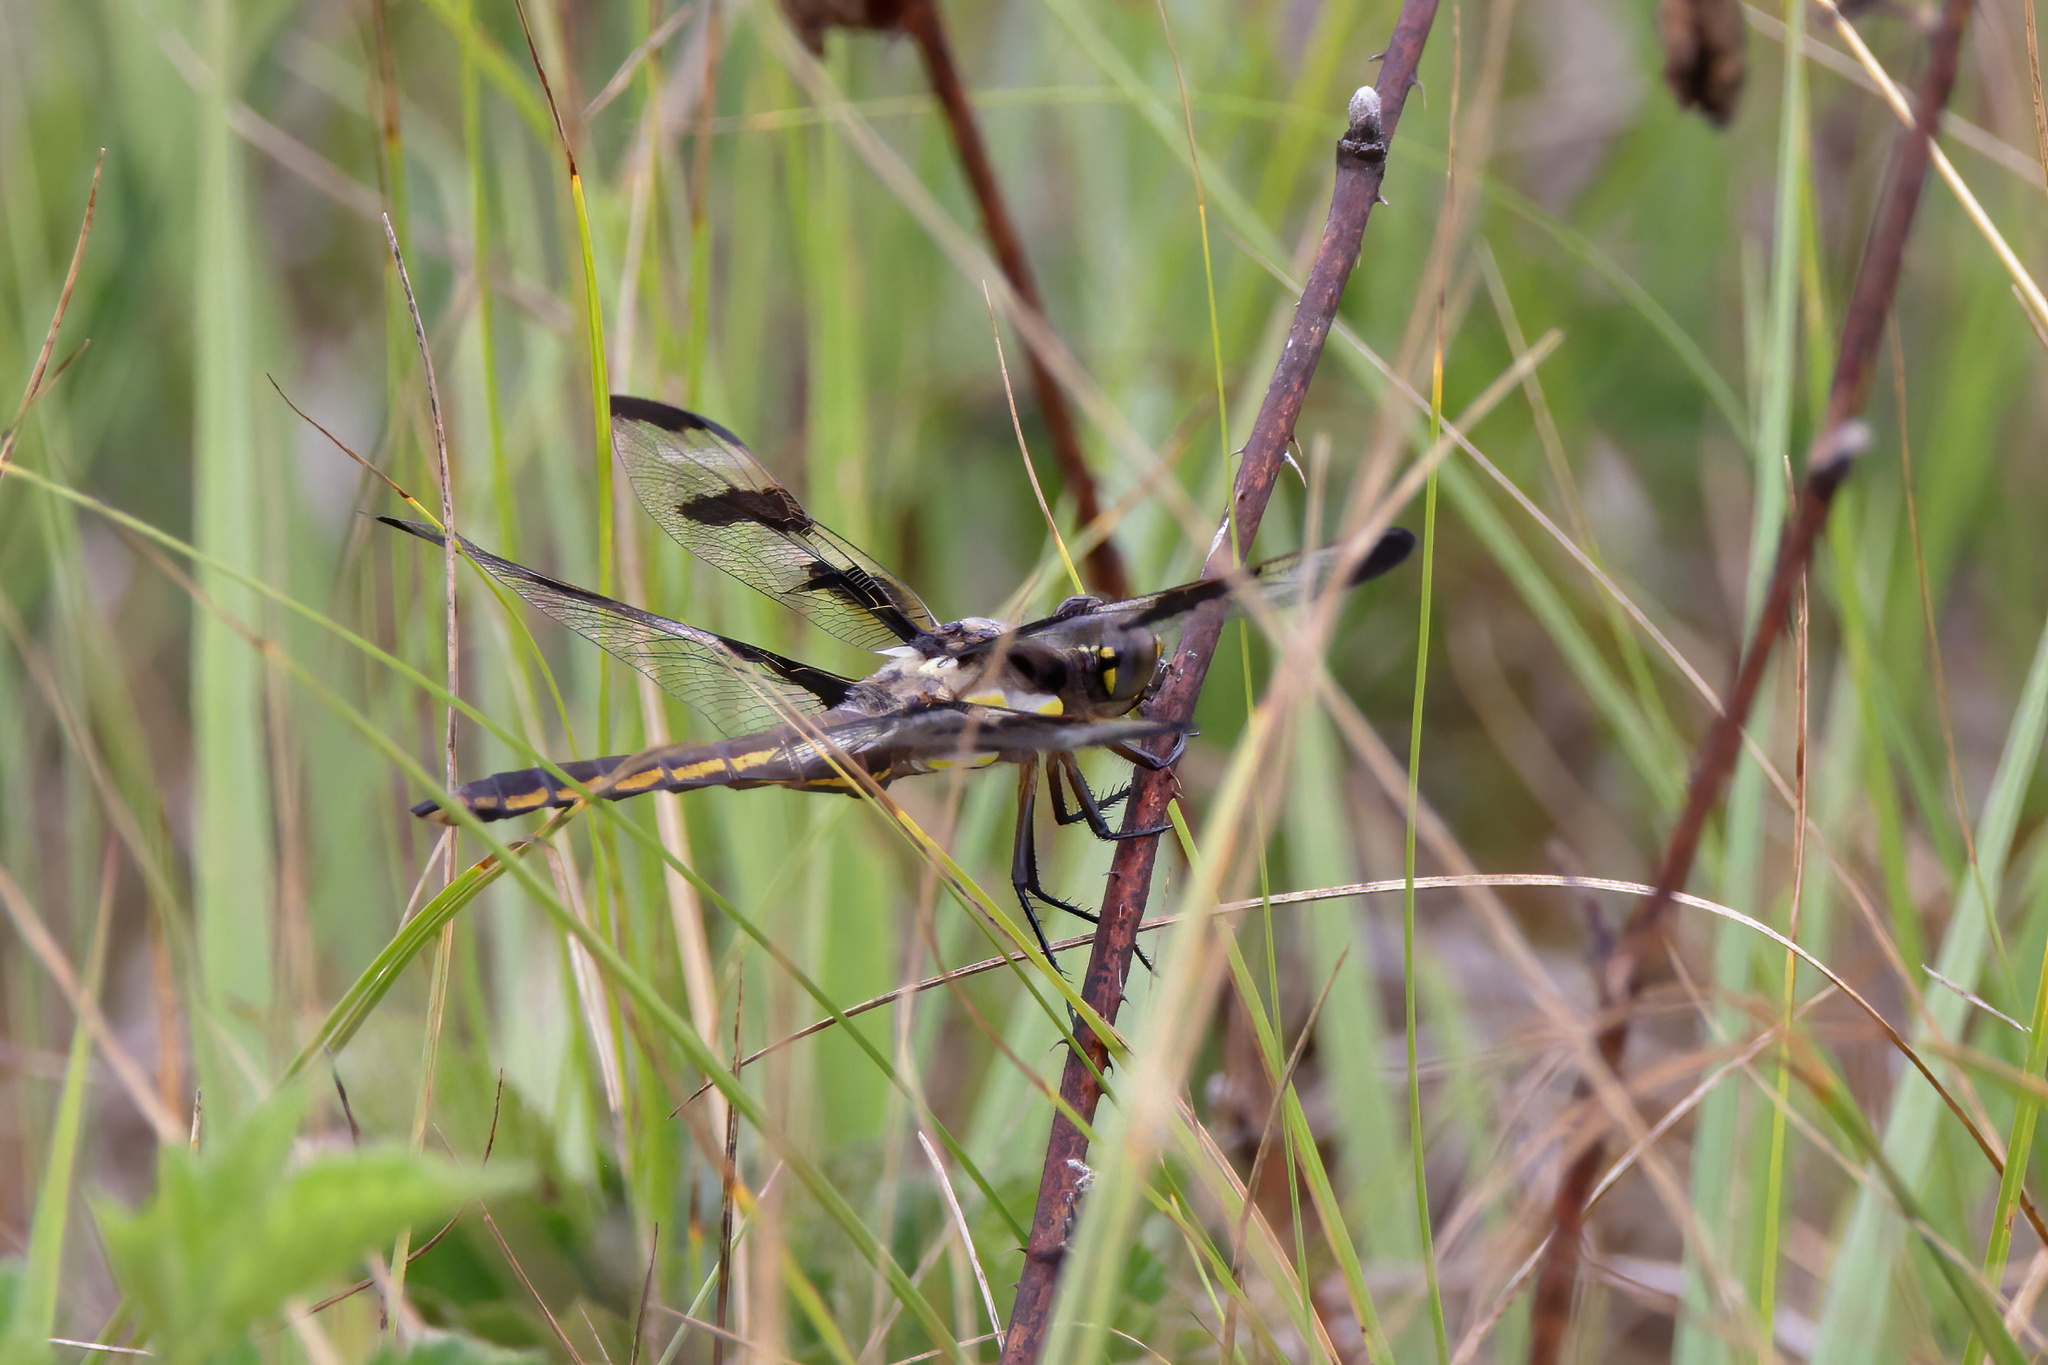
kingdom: Animalia
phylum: Arthropoda
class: Insecta
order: Odonata
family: Libellulidae
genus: Libellula
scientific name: Libellula pulchella
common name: Twelve-spotted skimmer
